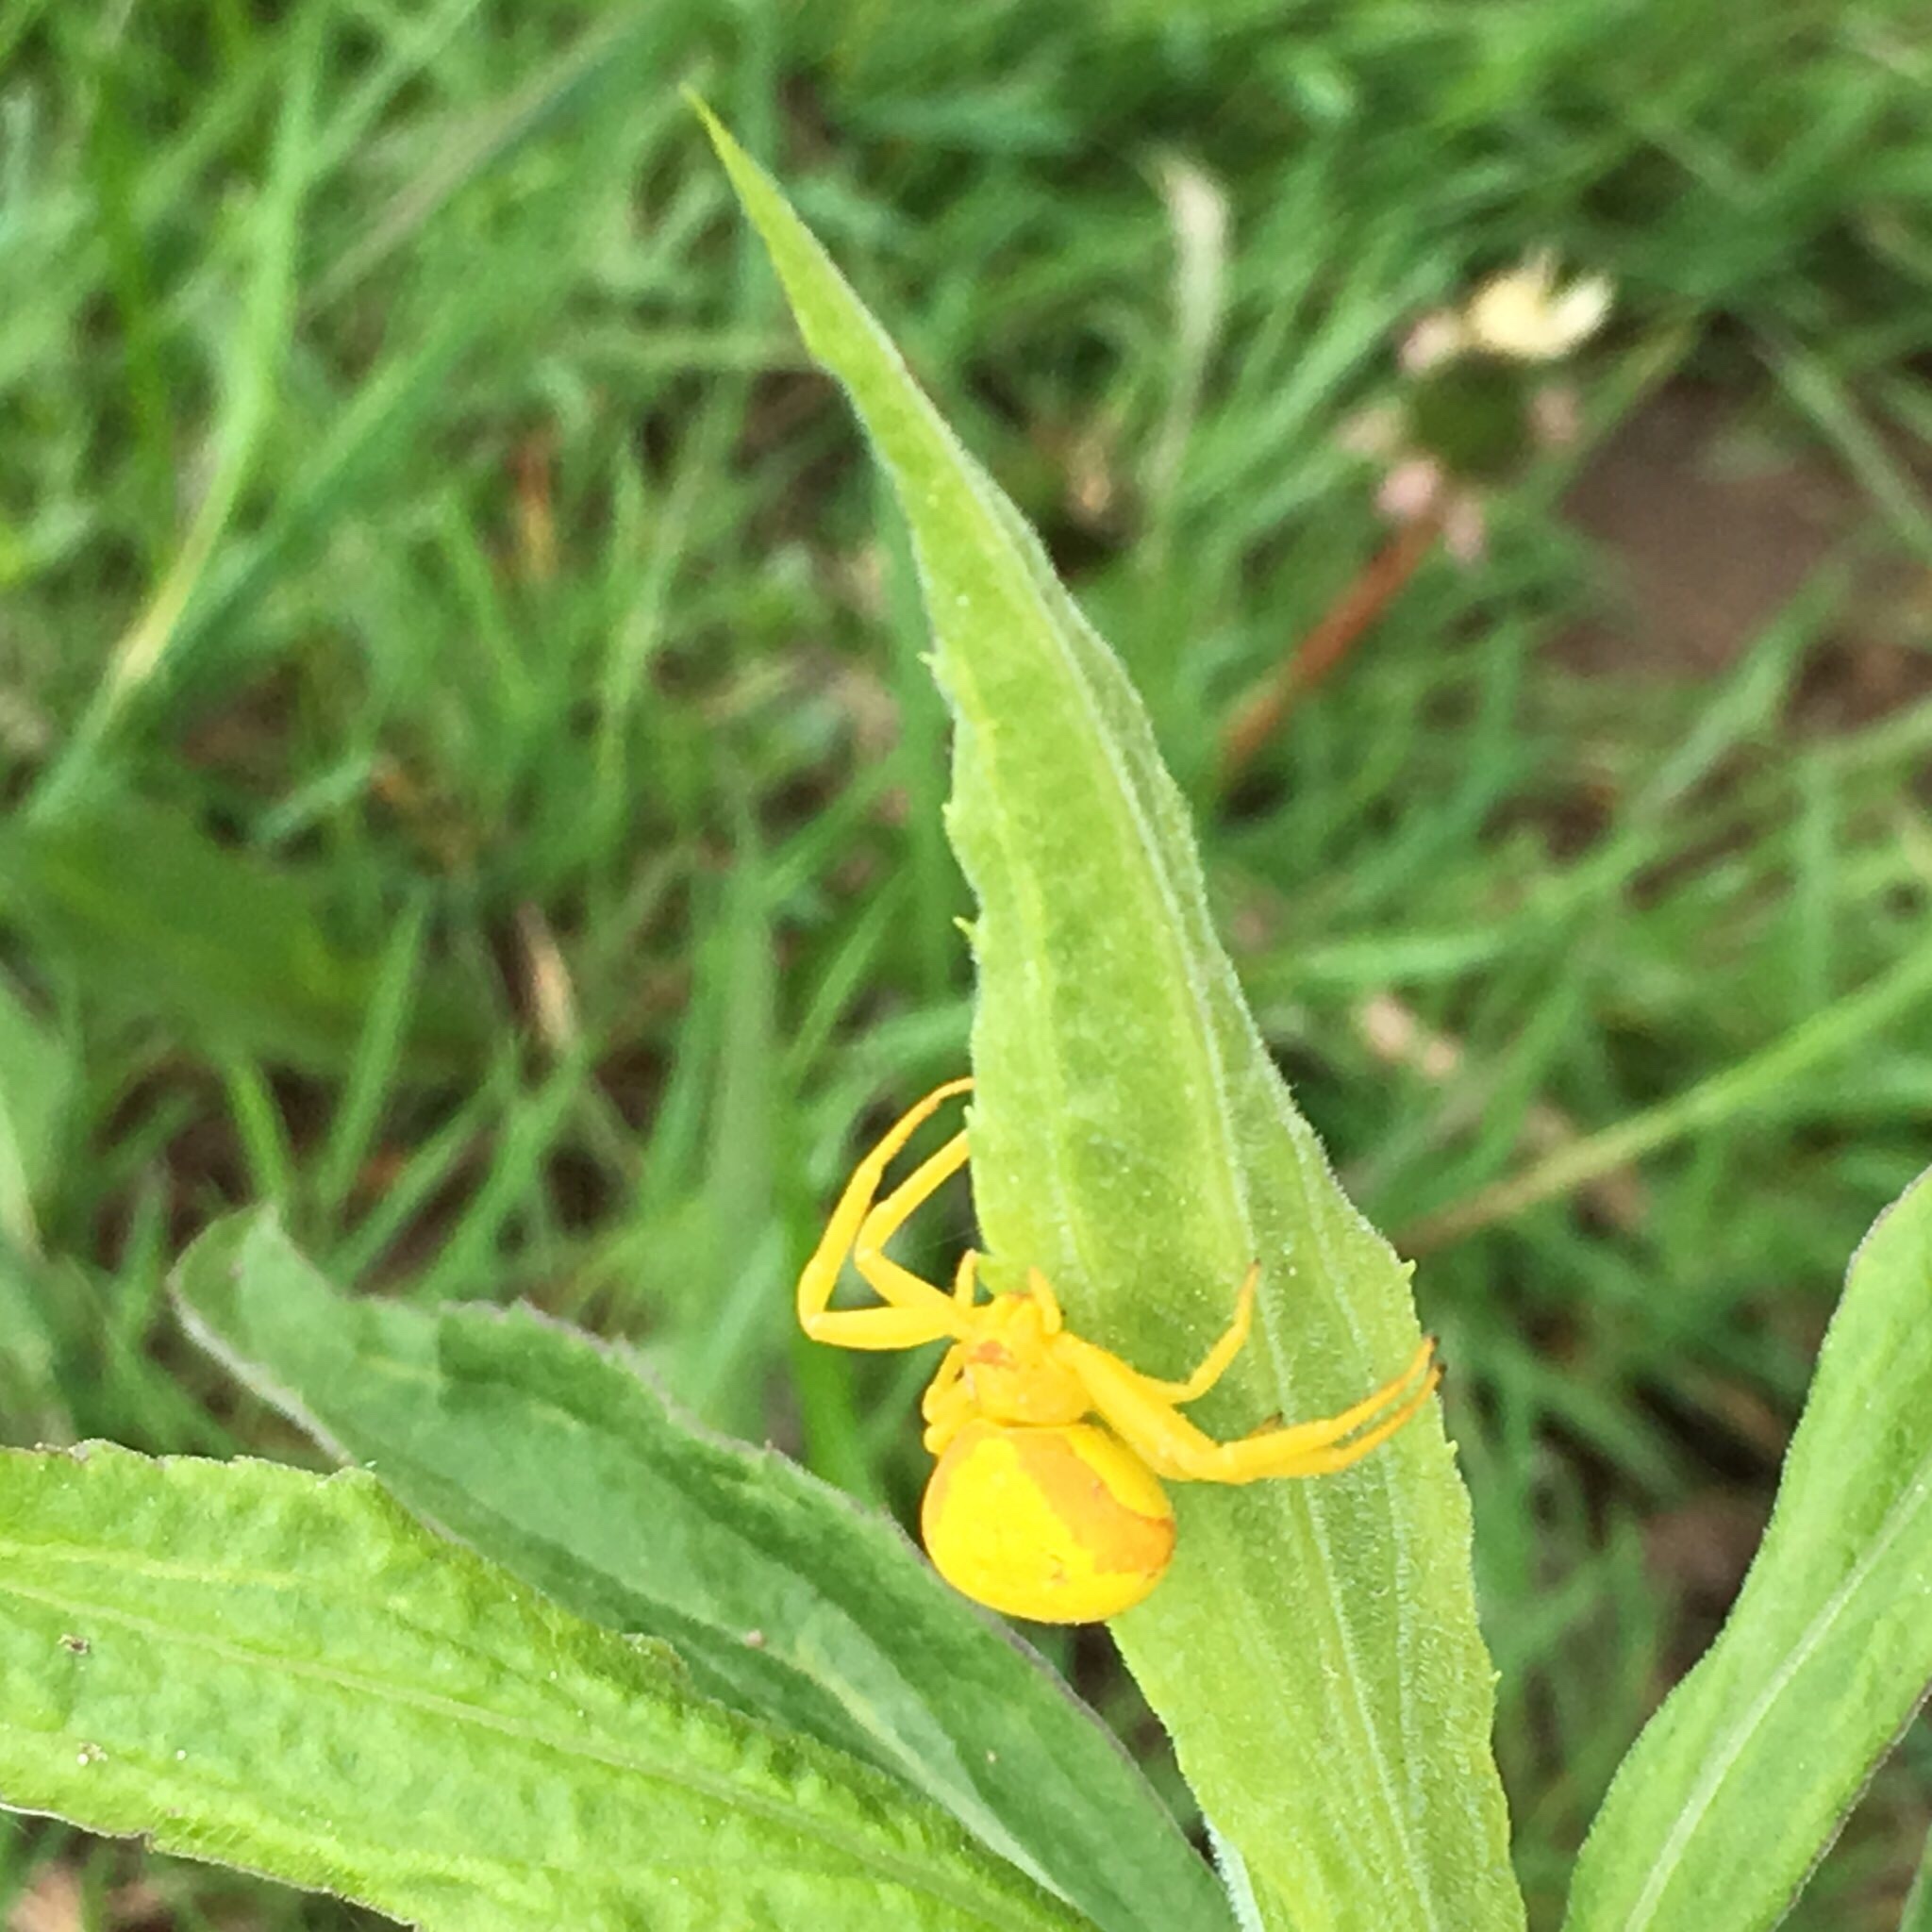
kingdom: Animalia
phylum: Arthropoda
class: Arachnida
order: Araneae
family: Thomisidae
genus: Misumena
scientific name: Misumena vatia
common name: Goldenrod crab spider
